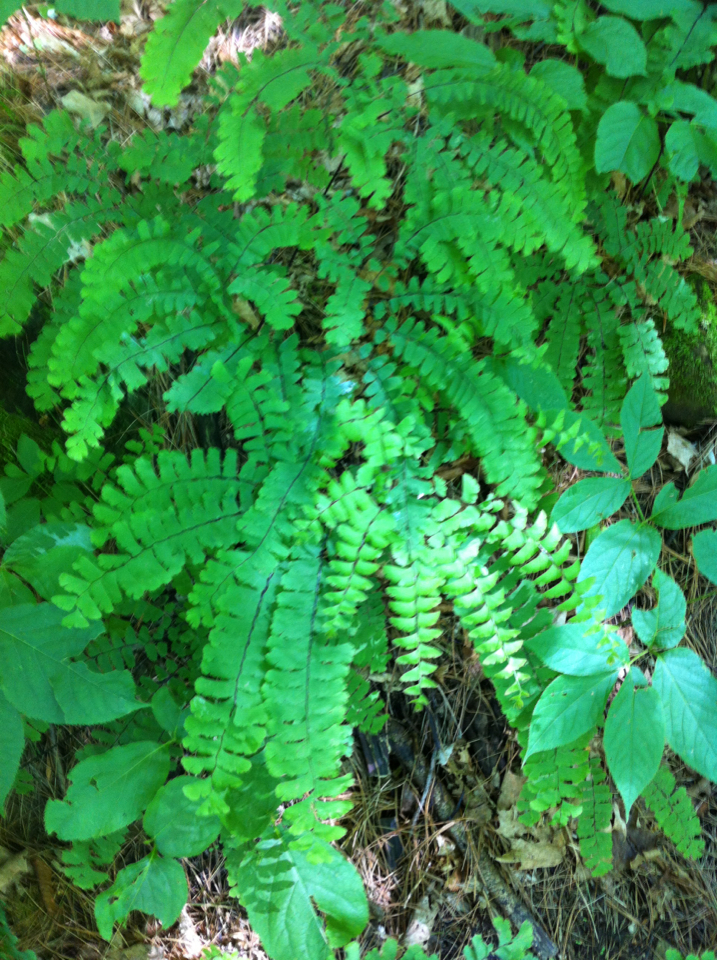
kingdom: Plantae
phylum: Tracheophyta
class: Polypodiopsida
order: Polypodiales
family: Pteridaceae
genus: Adiantum
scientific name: Adiantum pedatum
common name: Five-finger fern
